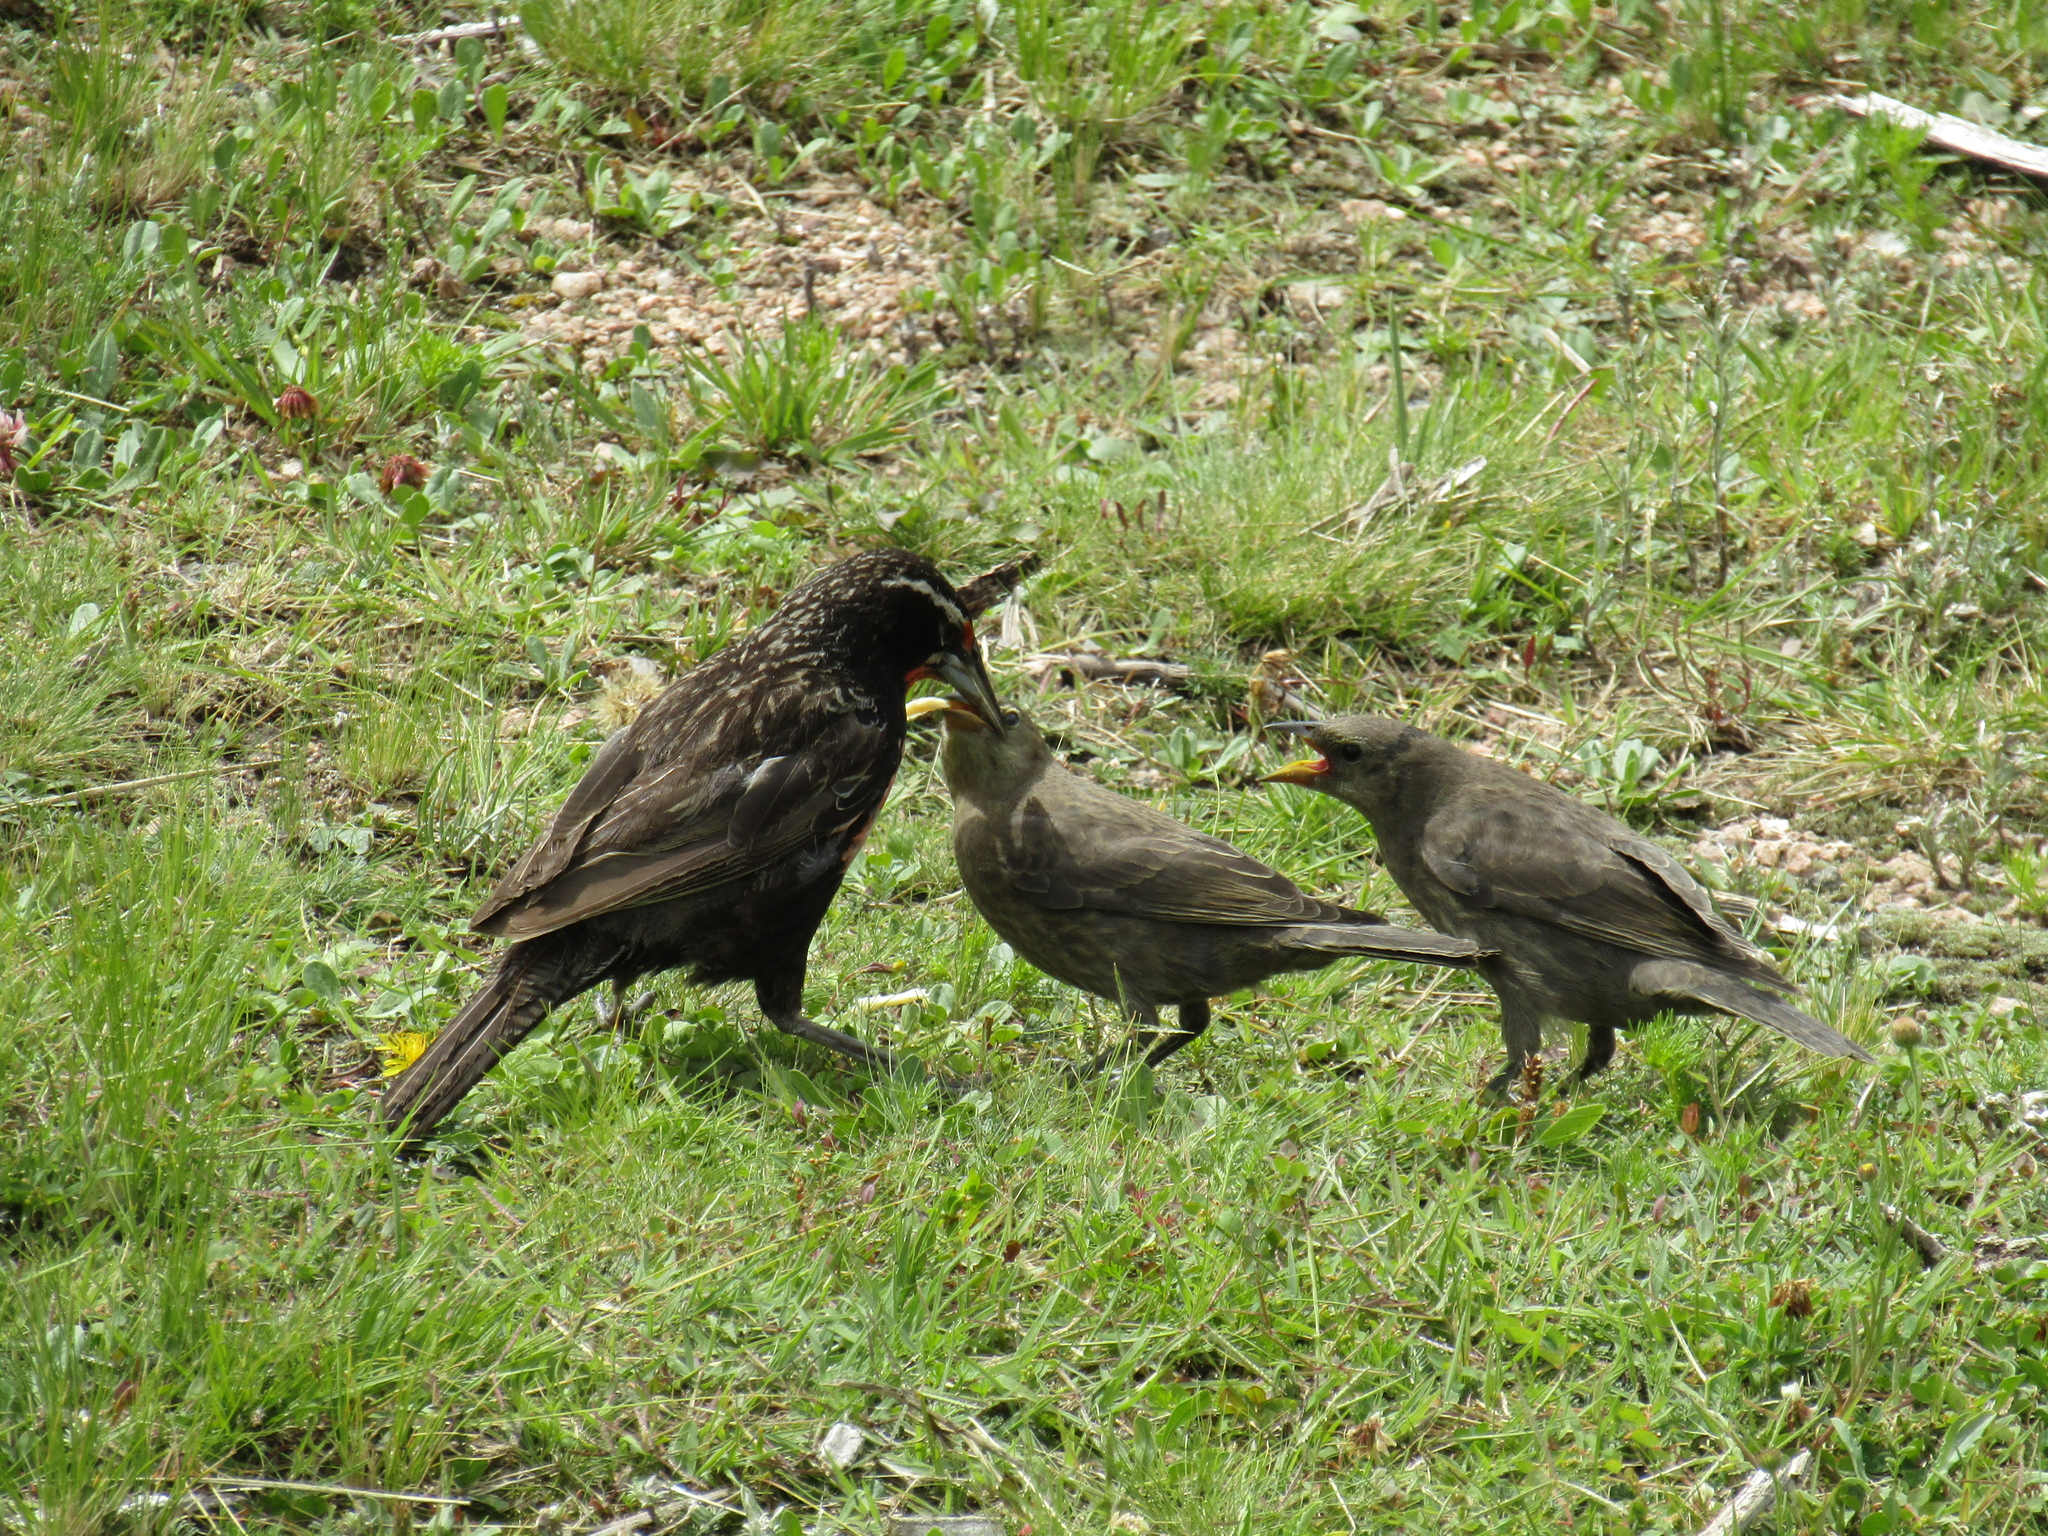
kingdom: Animalia
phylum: Chordata
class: Aves
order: Passeriformes
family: Icteridae
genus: Sturnella
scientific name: Sturnella loyca
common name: Long-tailed meadowlark
